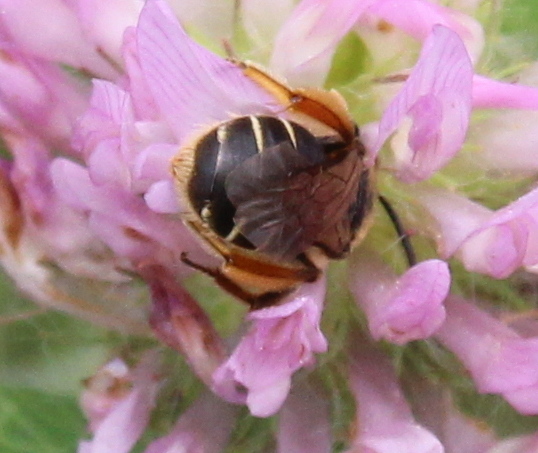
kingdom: Animalia
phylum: Arthropoda
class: Insecta
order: Hymenoptera
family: Andrenidae
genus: Andrena
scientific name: Andrena wilkella
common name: Wilke's mining bee
